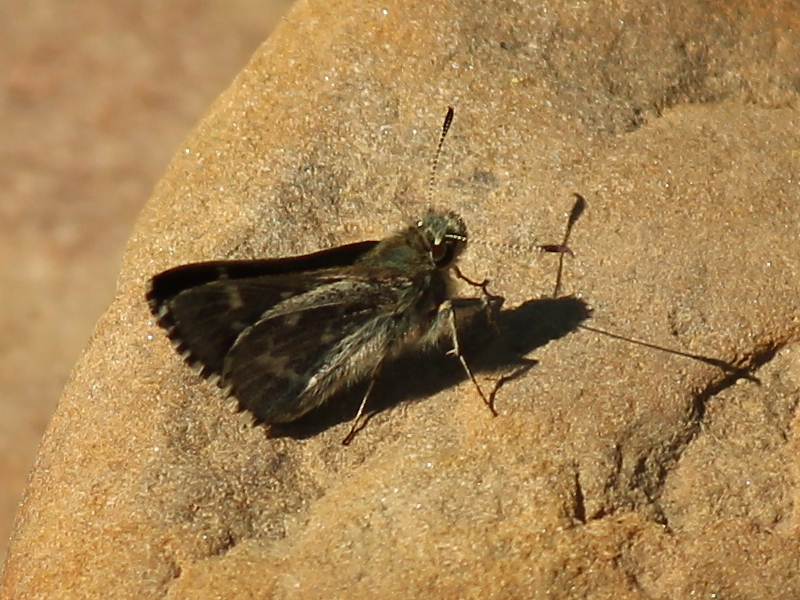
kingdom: Animalia
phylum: Arthropoda
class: Insecta
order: Lepidoptera
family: Hesperiidae
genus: Mastor
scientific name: Mastor celia
